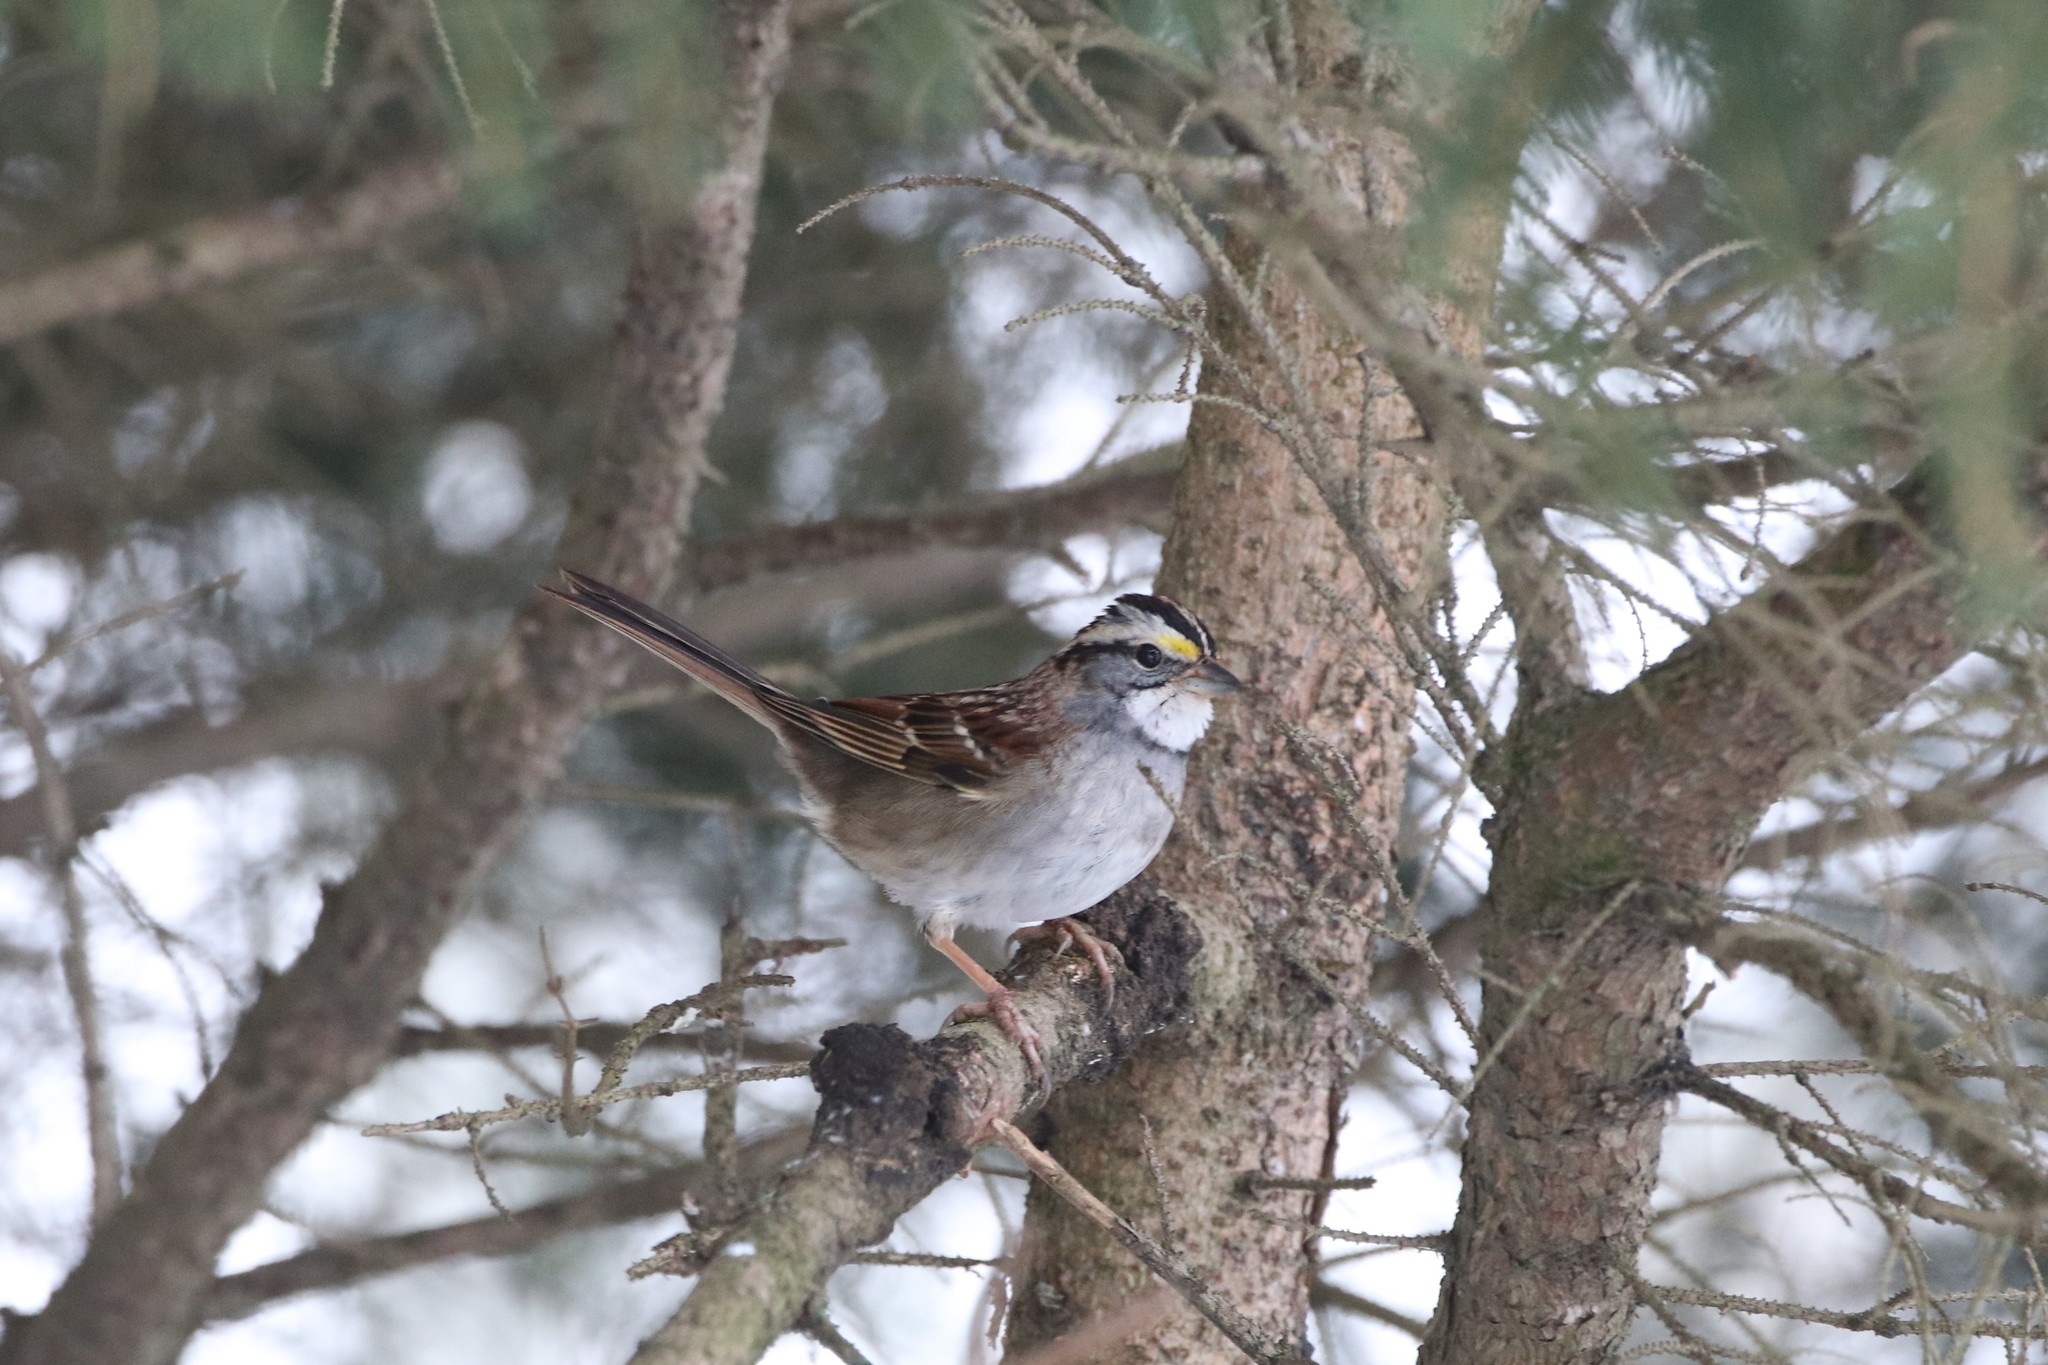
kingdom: Animalia
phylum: Chordata
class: Aves
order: Passeriformes
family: Passerellidae
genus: Zonotrichia
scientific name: Zonotrichia albicollis
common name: White-throated sparrow
